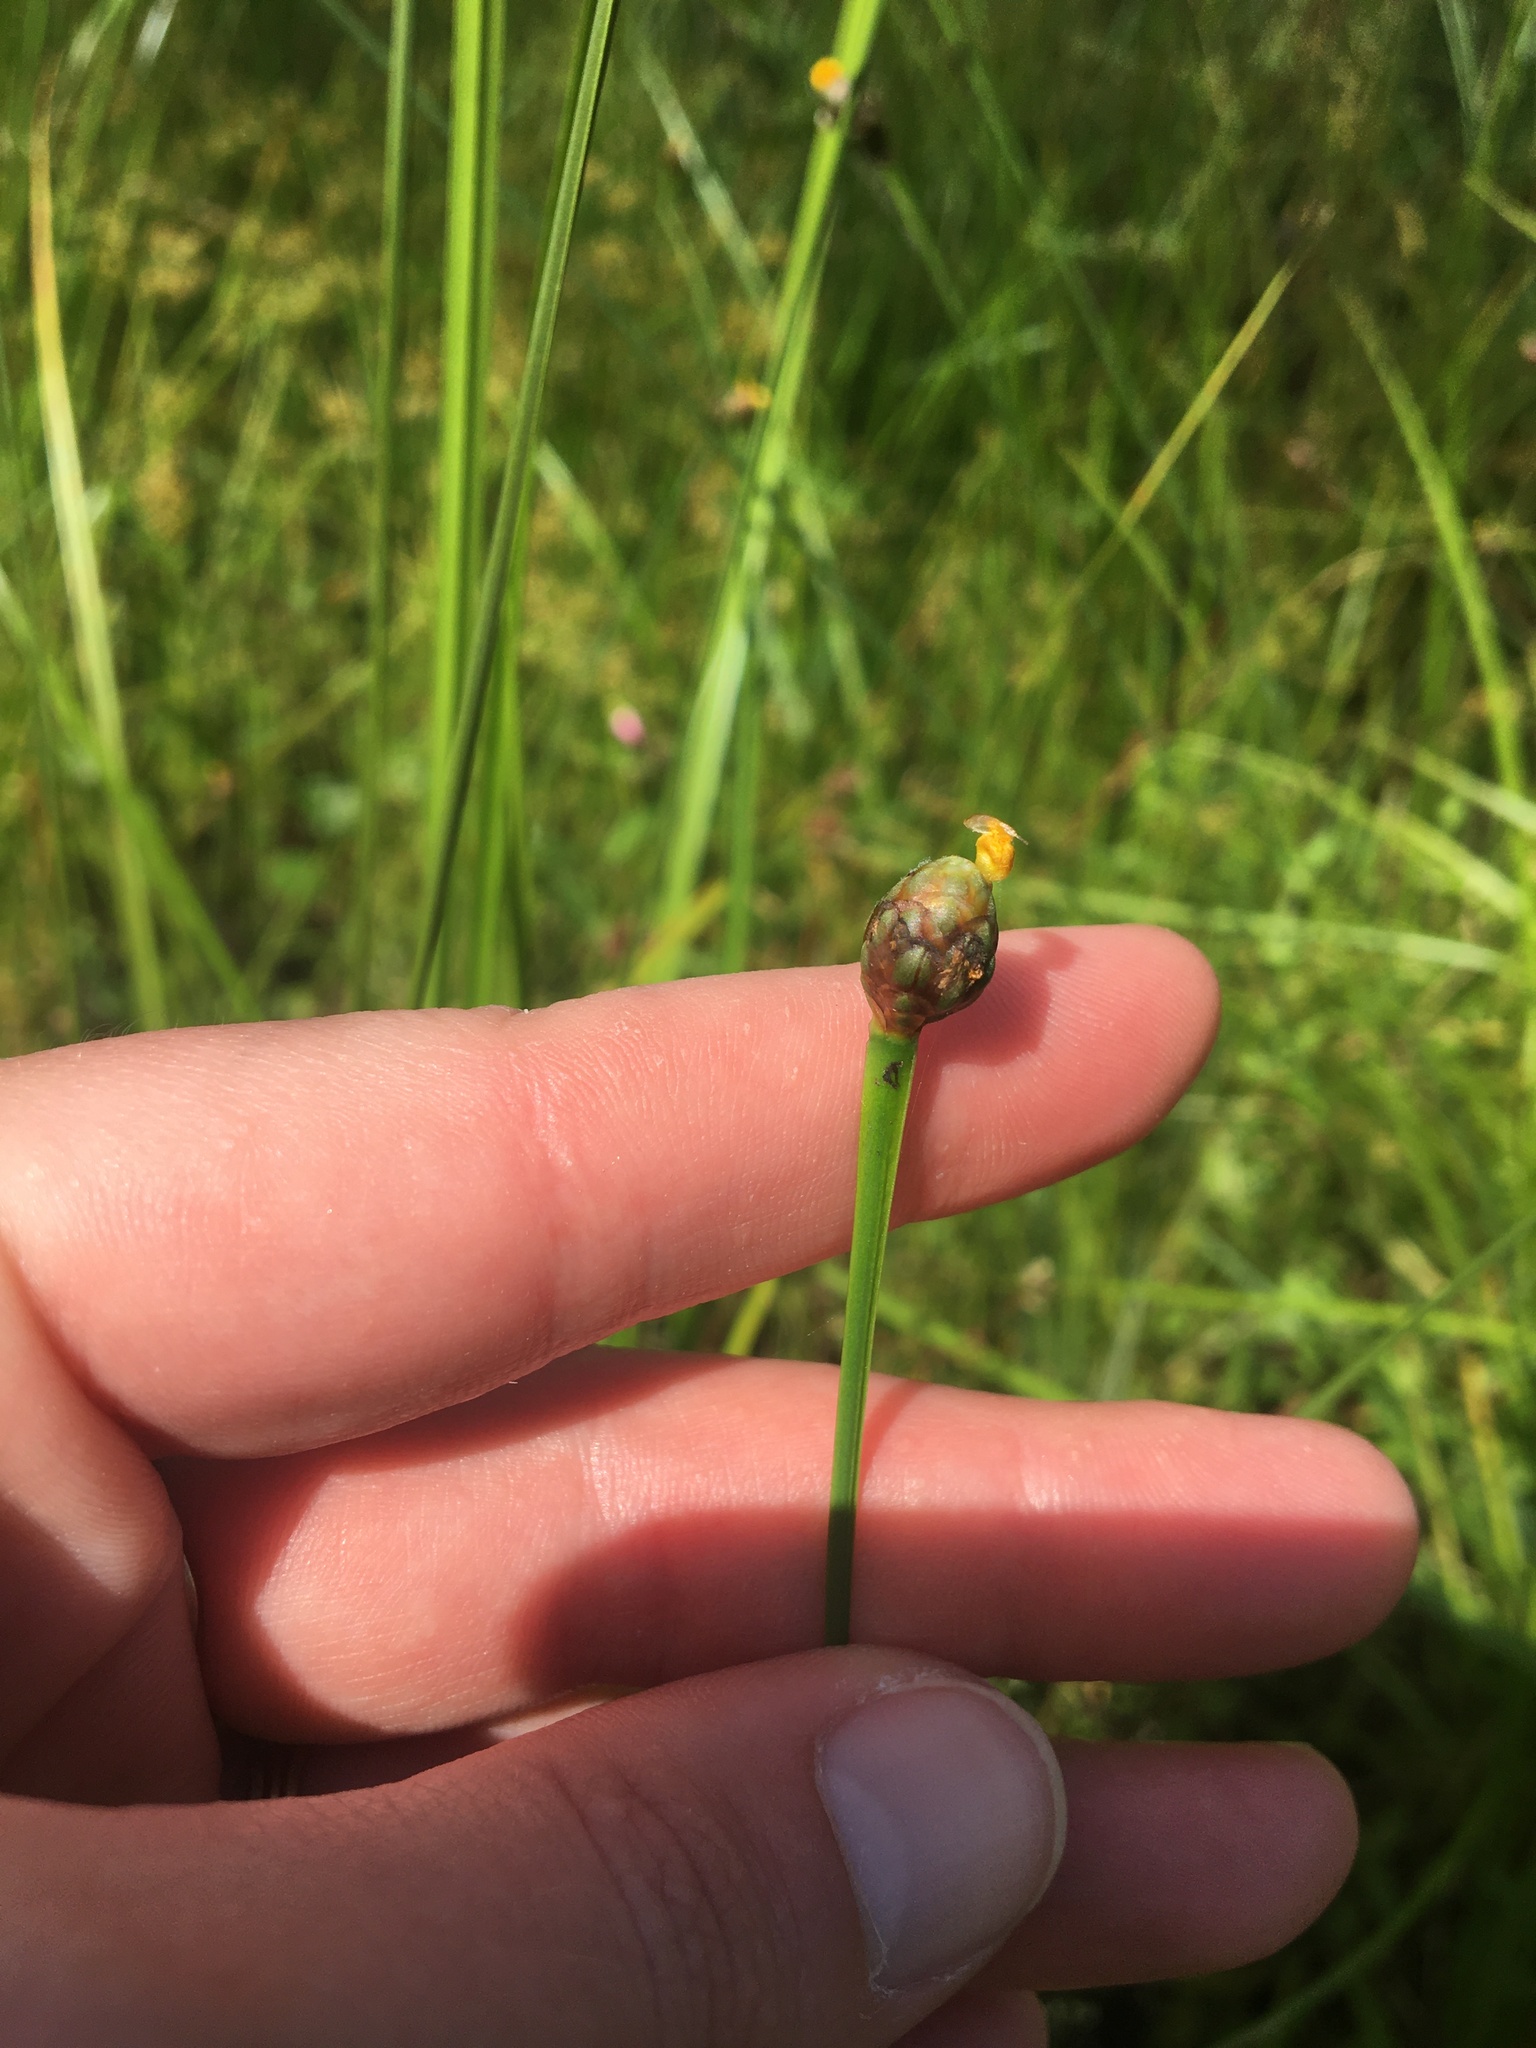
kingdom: Plantae
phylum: Tracheophyta
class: Liliopsida
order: Poales
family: Xyridaceae
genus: Xyris
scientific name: Xyris difformis
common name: Bog yellow-eyed-grass
